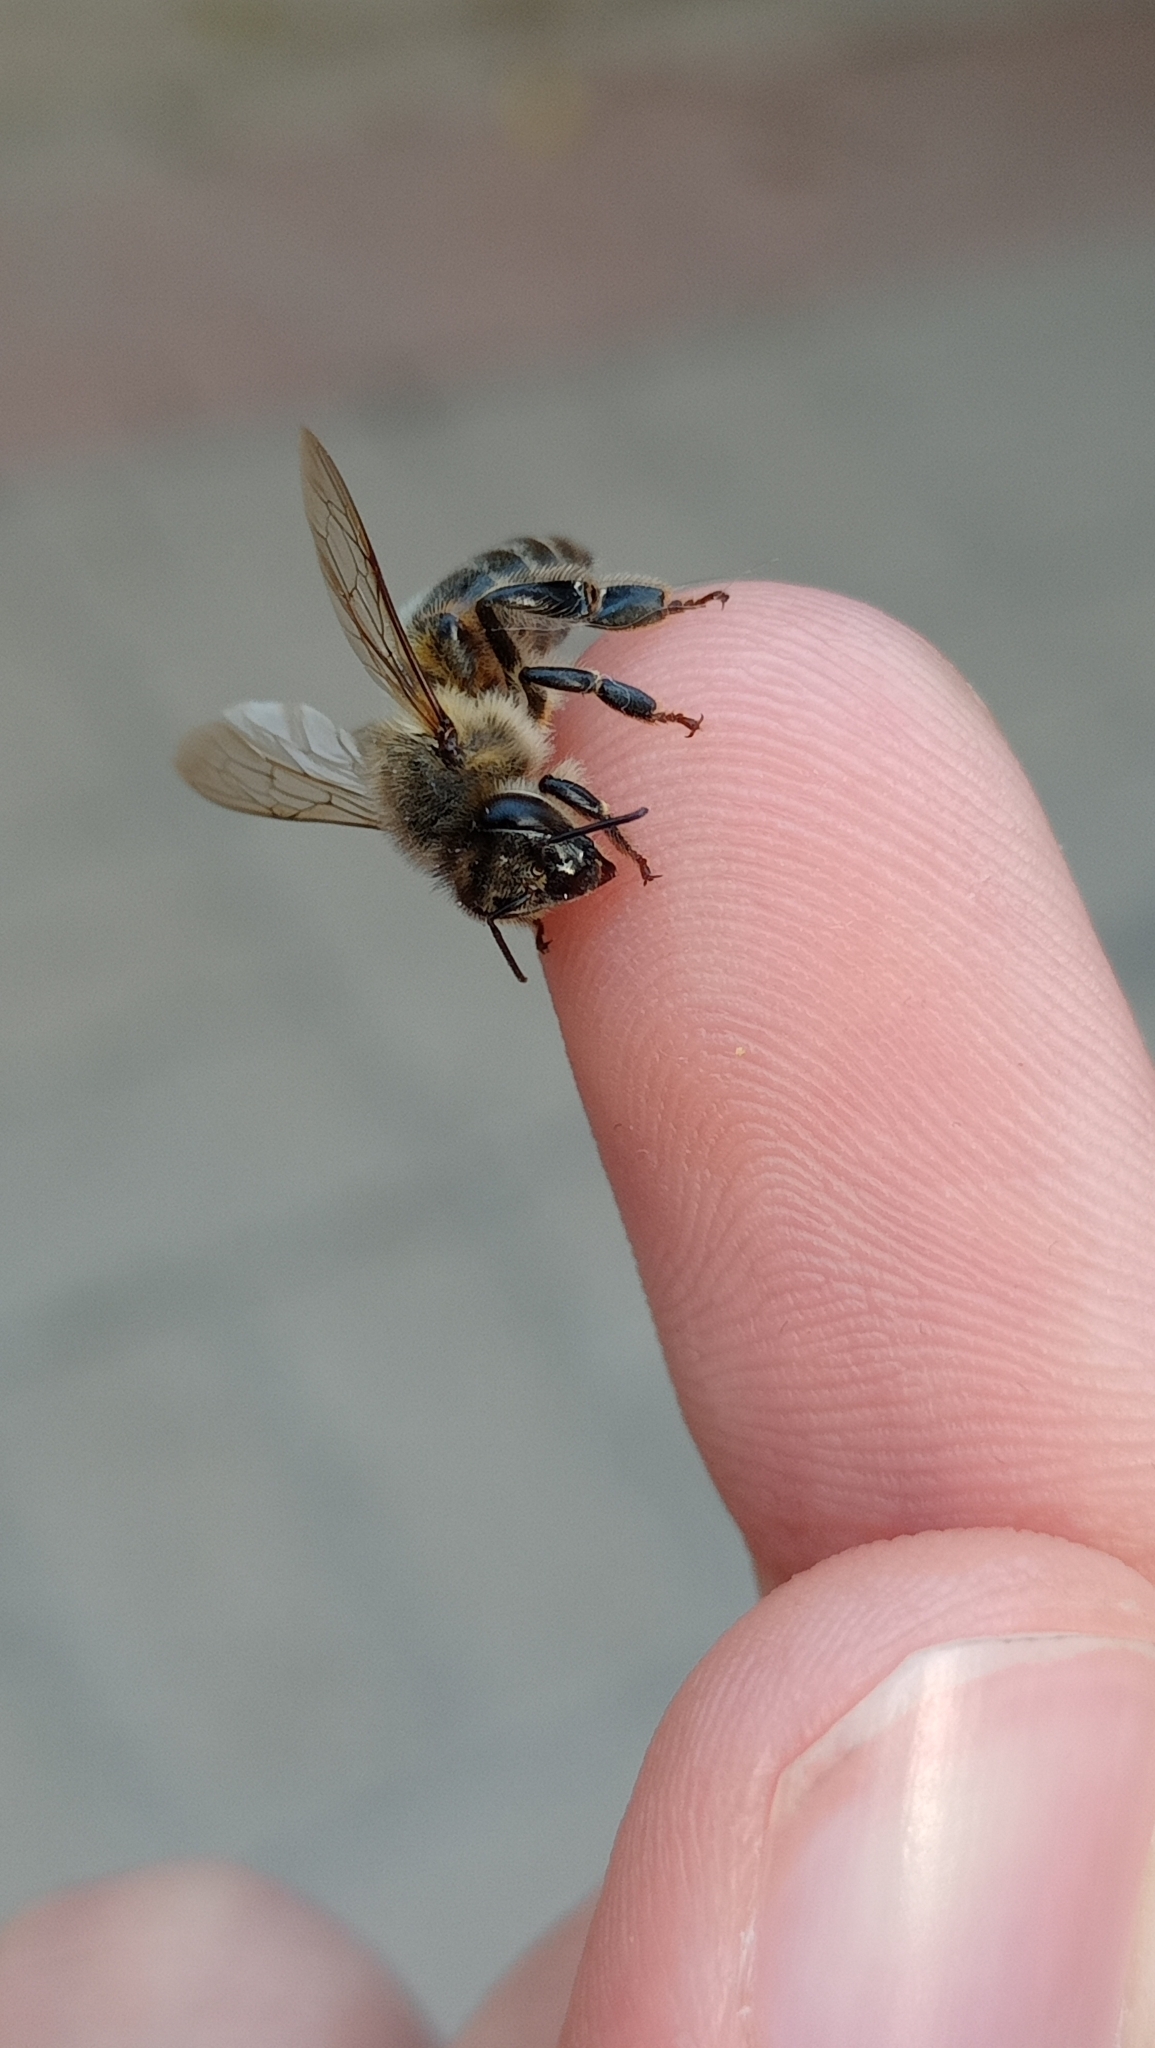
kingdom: Animalia
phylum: Arthropoda
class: Insecta
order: Hymenoptera
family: Apidae
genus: Apis
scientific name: Apis mellifera
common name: Honey bee
